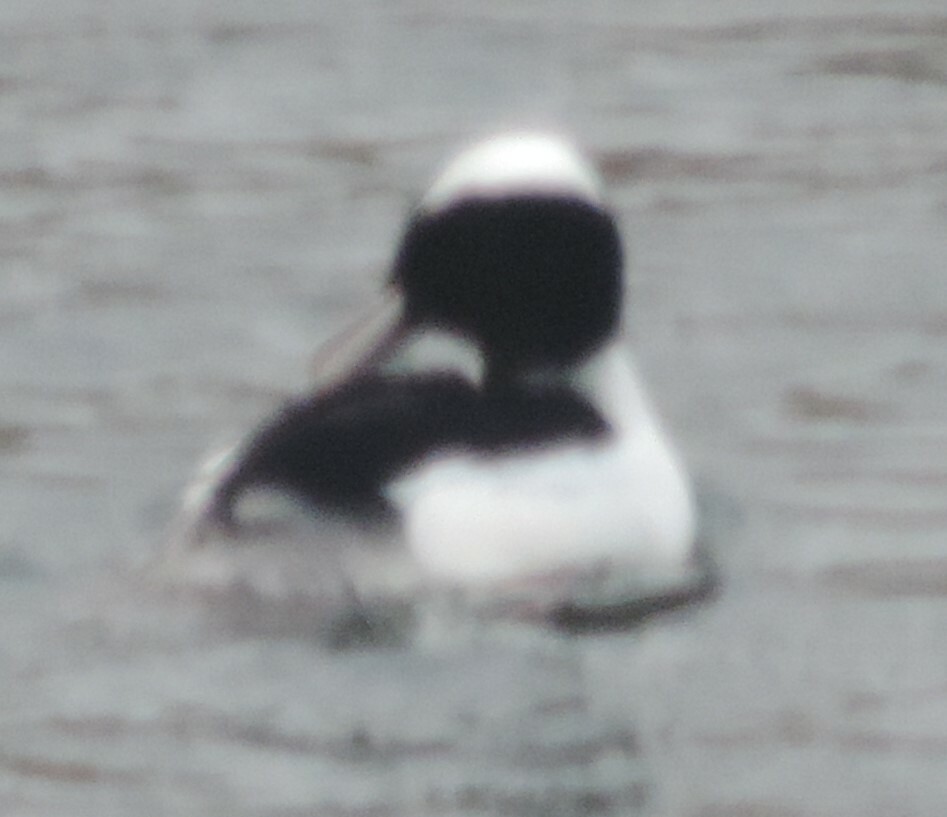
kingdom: Animalia
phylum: Chordata
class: Aves
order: Anseriformes
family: Anatidae
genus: Bucephala
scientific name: Bucephala albeola
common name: Bufflehead
